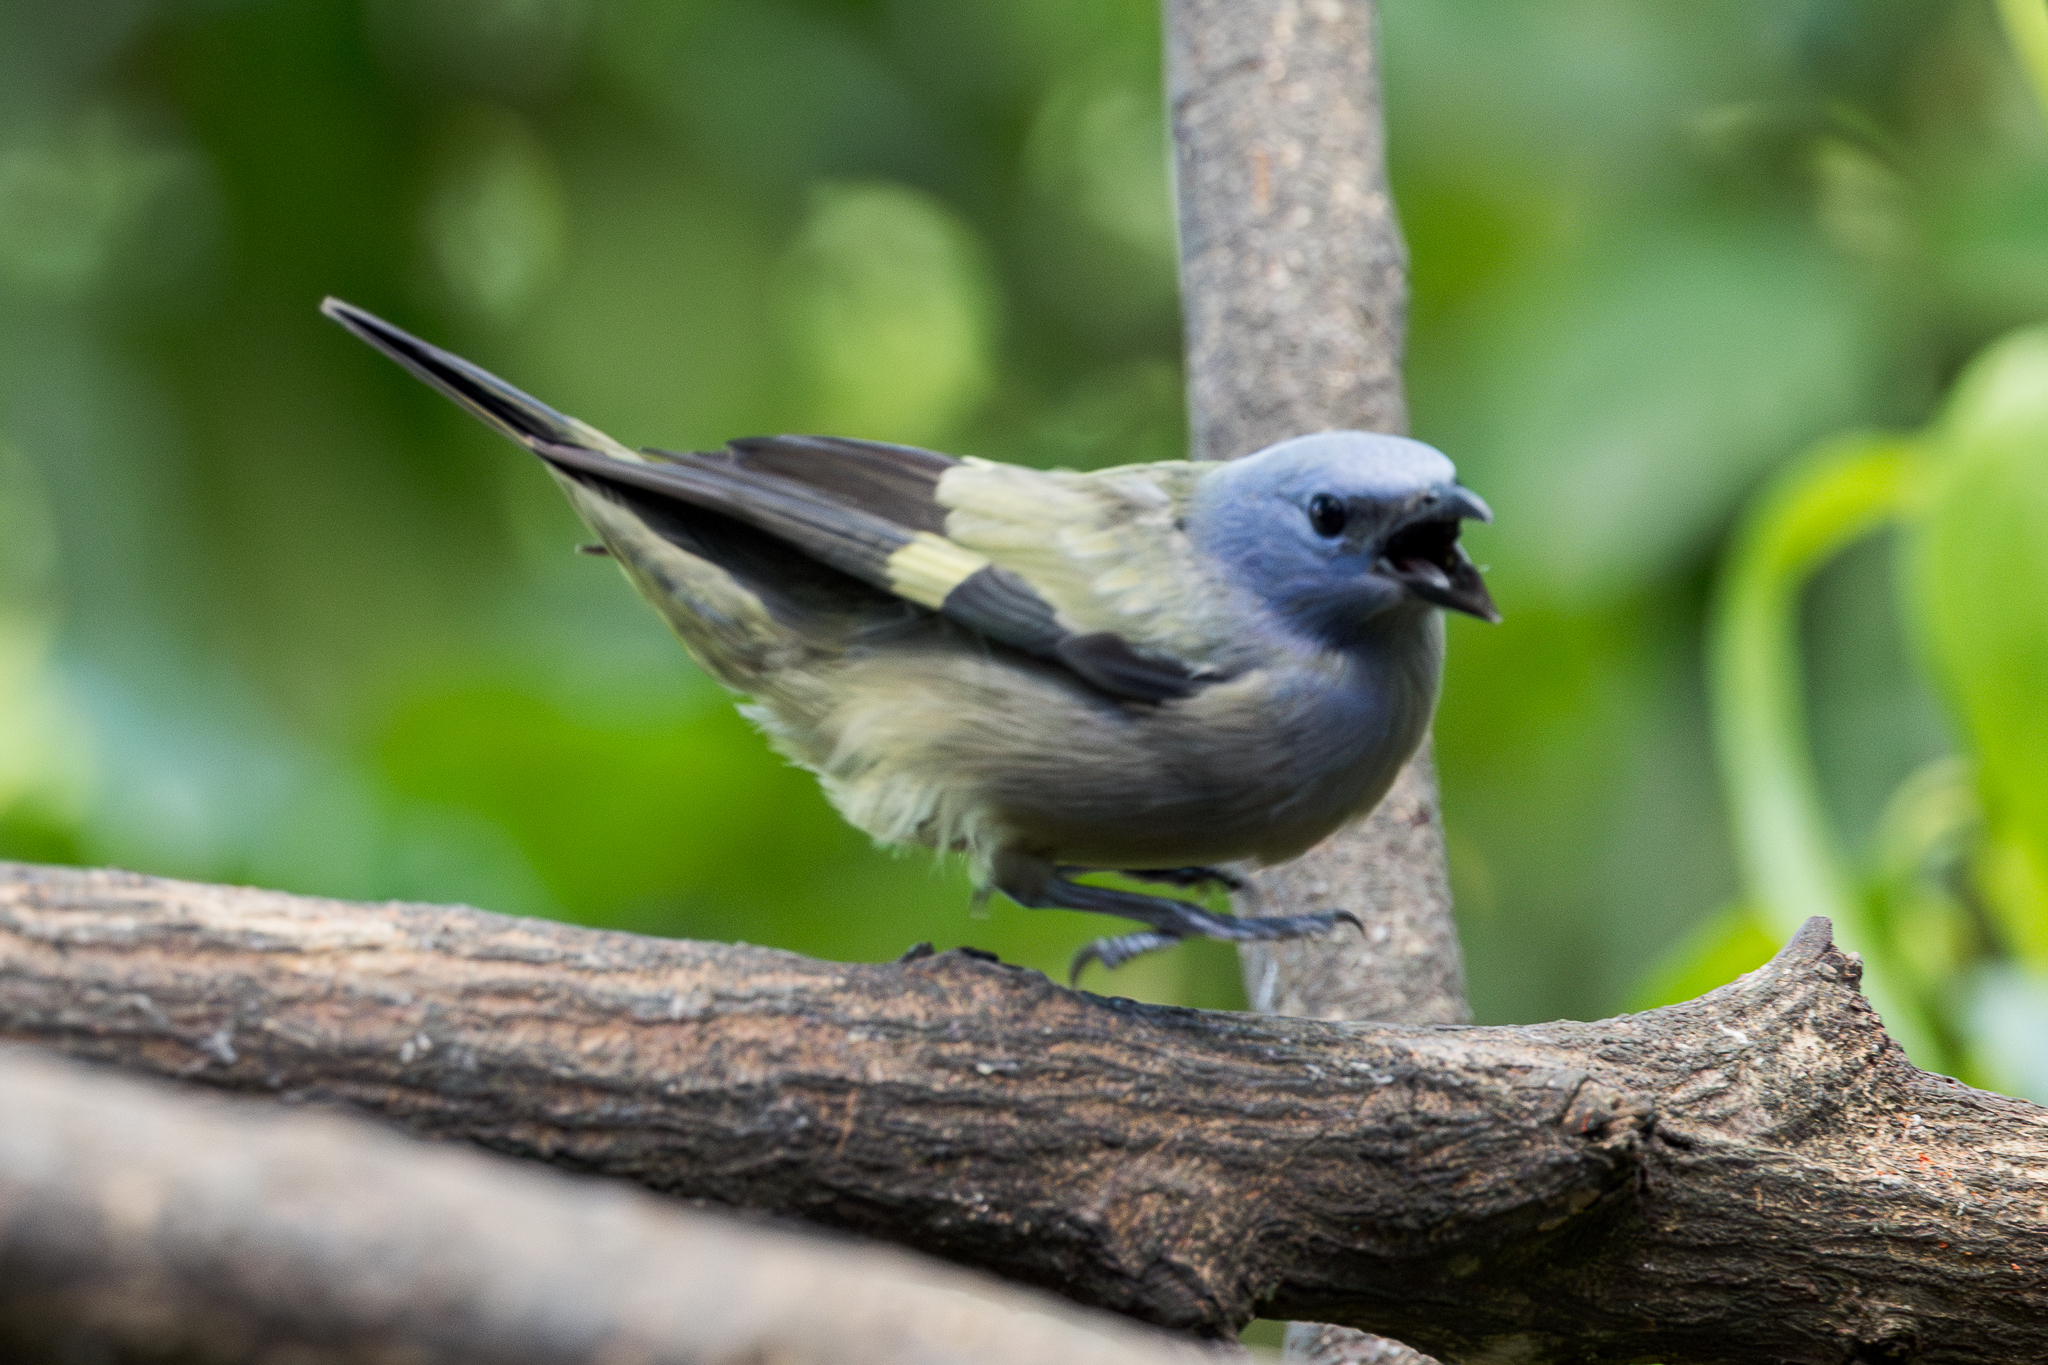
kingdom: Animalia
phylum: Chordata
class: Aves
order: Passeriformes
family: Thraupidae
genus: Thraupis
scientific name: Thraupis abbas
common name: Yellow-winged tanager
